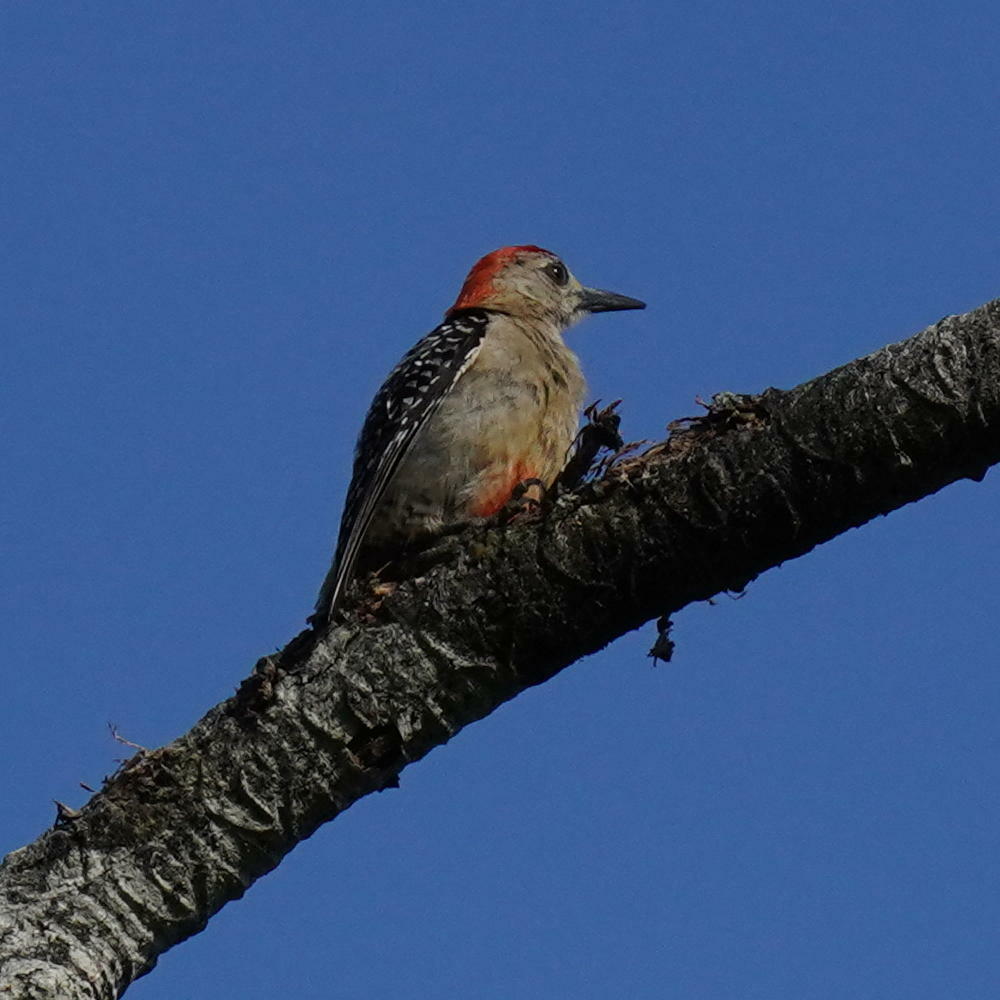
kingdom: Animalia
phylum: Chordata
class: Aves
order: Piciformes
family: Picidae
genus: Melanerpes
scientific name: Melanerpes rubricapillus
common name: Red-crowned woodpecker
